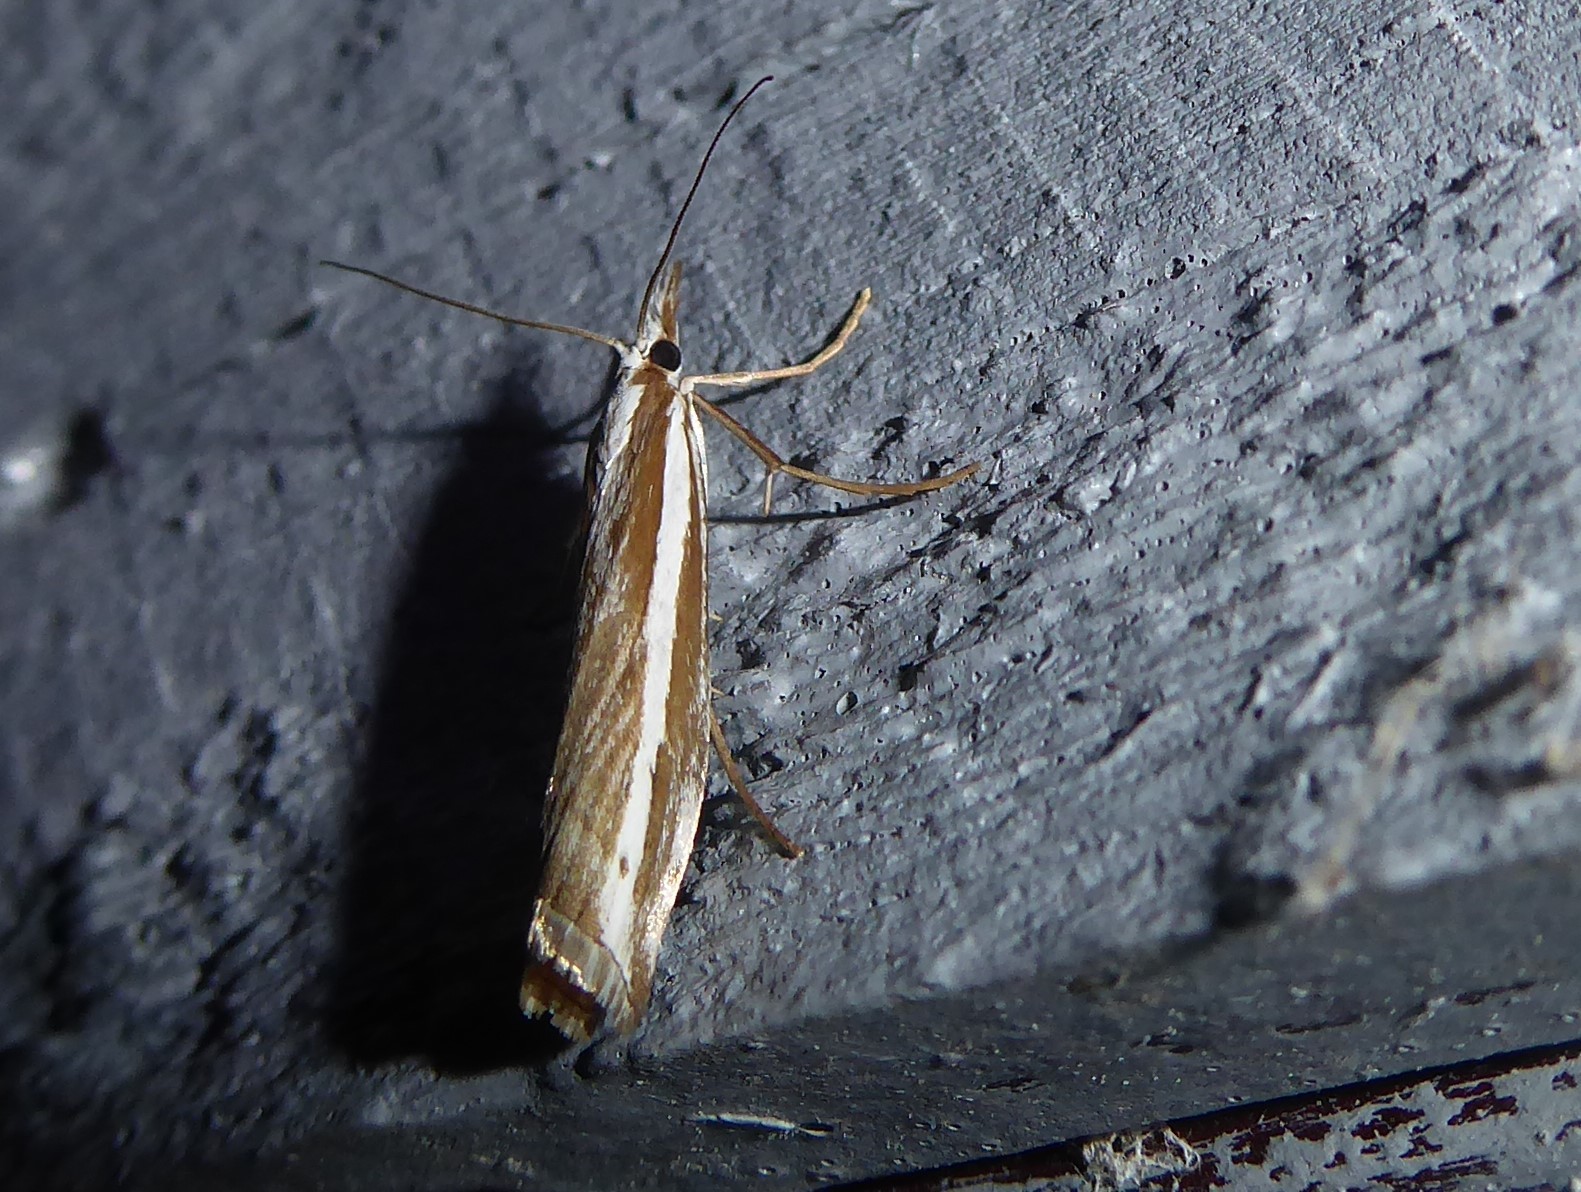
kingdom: Animalia
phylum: Arthropoda
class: Insecta
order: Lepidoptera
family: Crambidae
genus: Orocrambus
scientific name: Orocrambus vittellus
